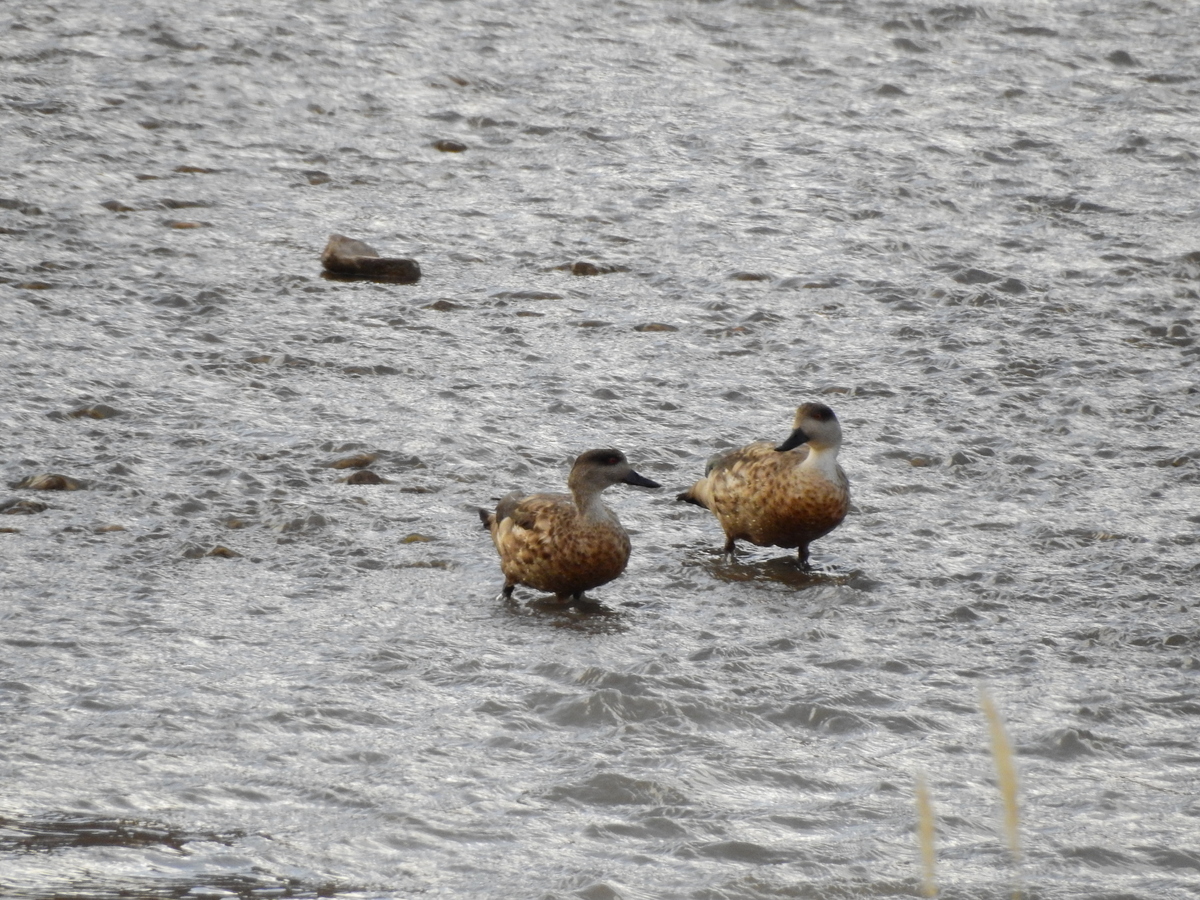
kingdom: Animalia
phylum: Chordata
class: Aves
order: Anseriformes
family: Anatidae
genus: Lophonetta
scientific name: Lophonetta specularioides
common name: Crested duck
